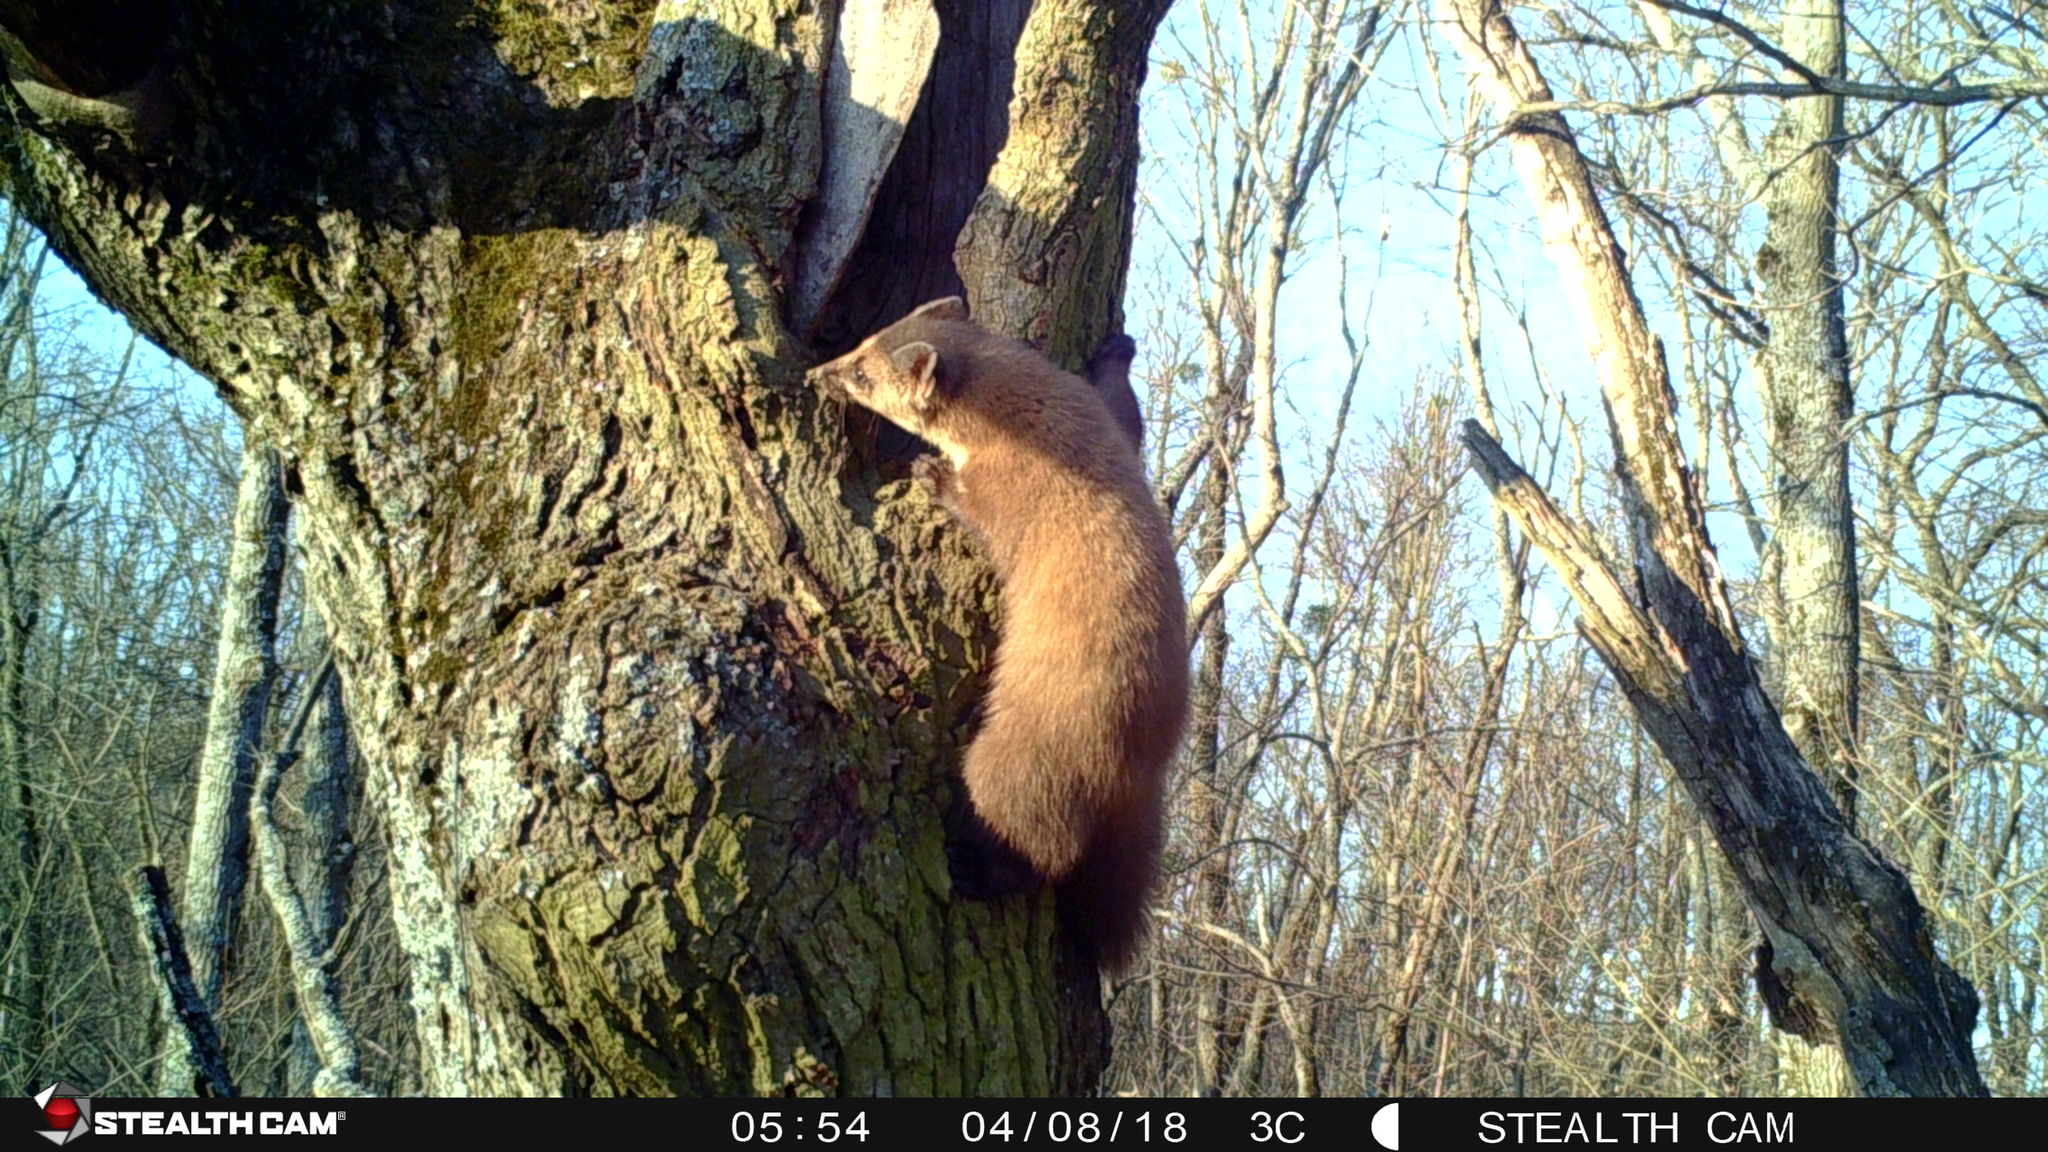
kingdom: Animalia
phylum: Chordata
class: Mammalia
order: Carnivora
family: Mustelidae
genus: Martes
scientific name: Martes martes
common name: European pine marten
